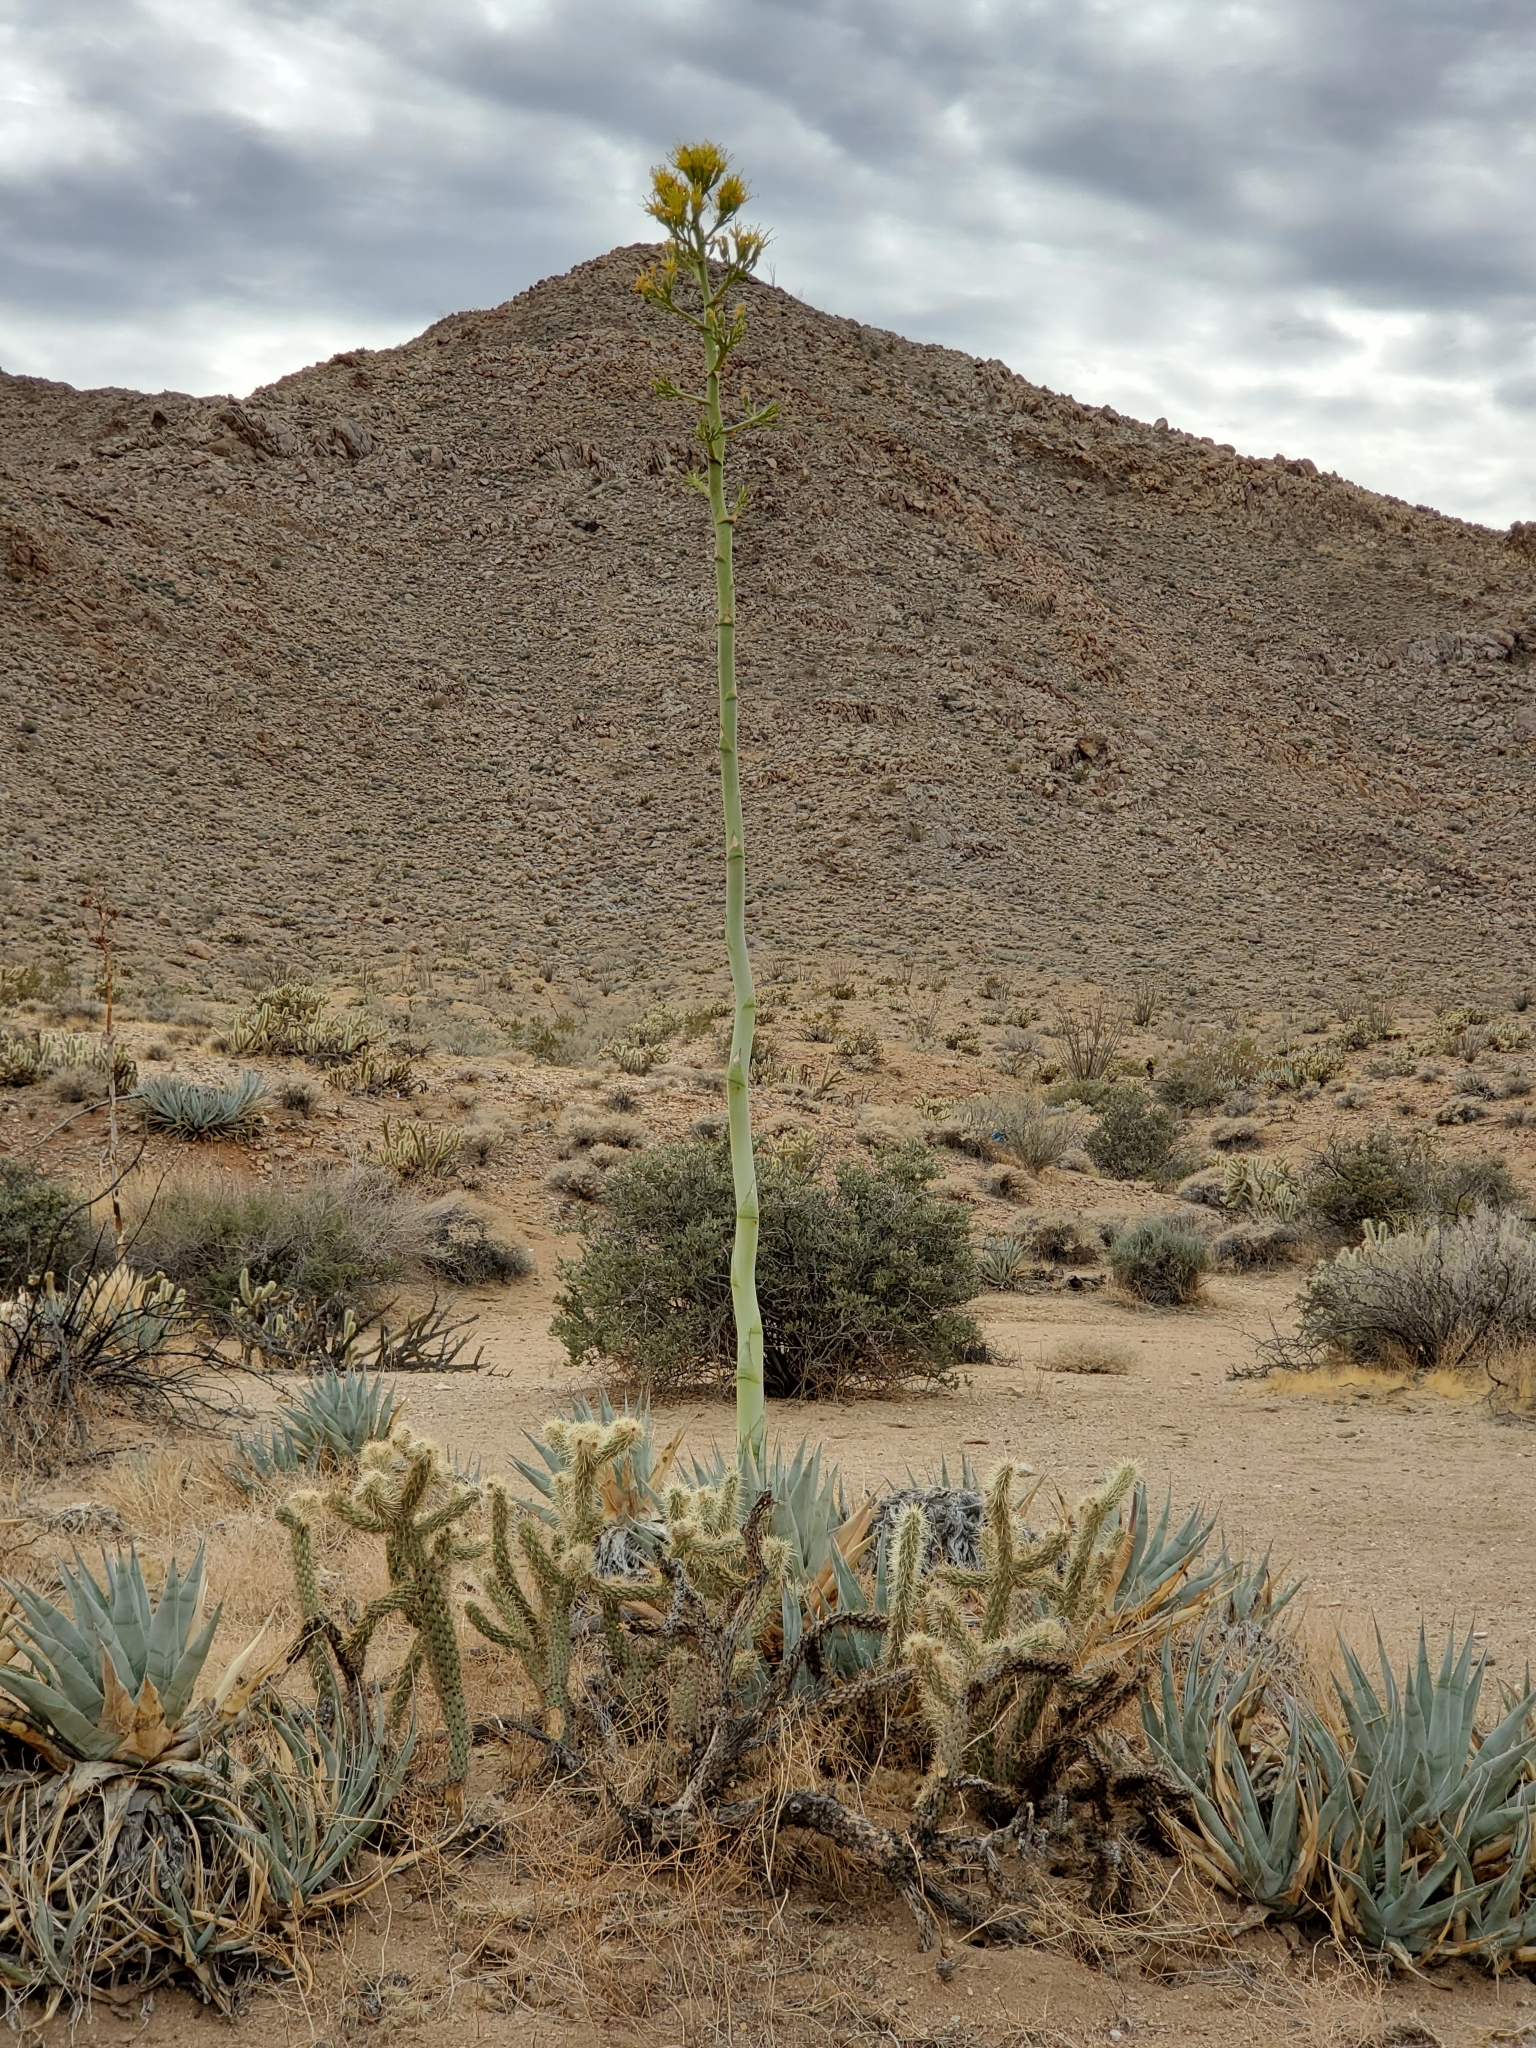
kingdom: Plantae
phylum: Tracheophyta
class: Liliopsida
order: Asparagales
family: Asparagaceae
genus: Agave
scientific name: Agave deserti
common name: Desert agave
